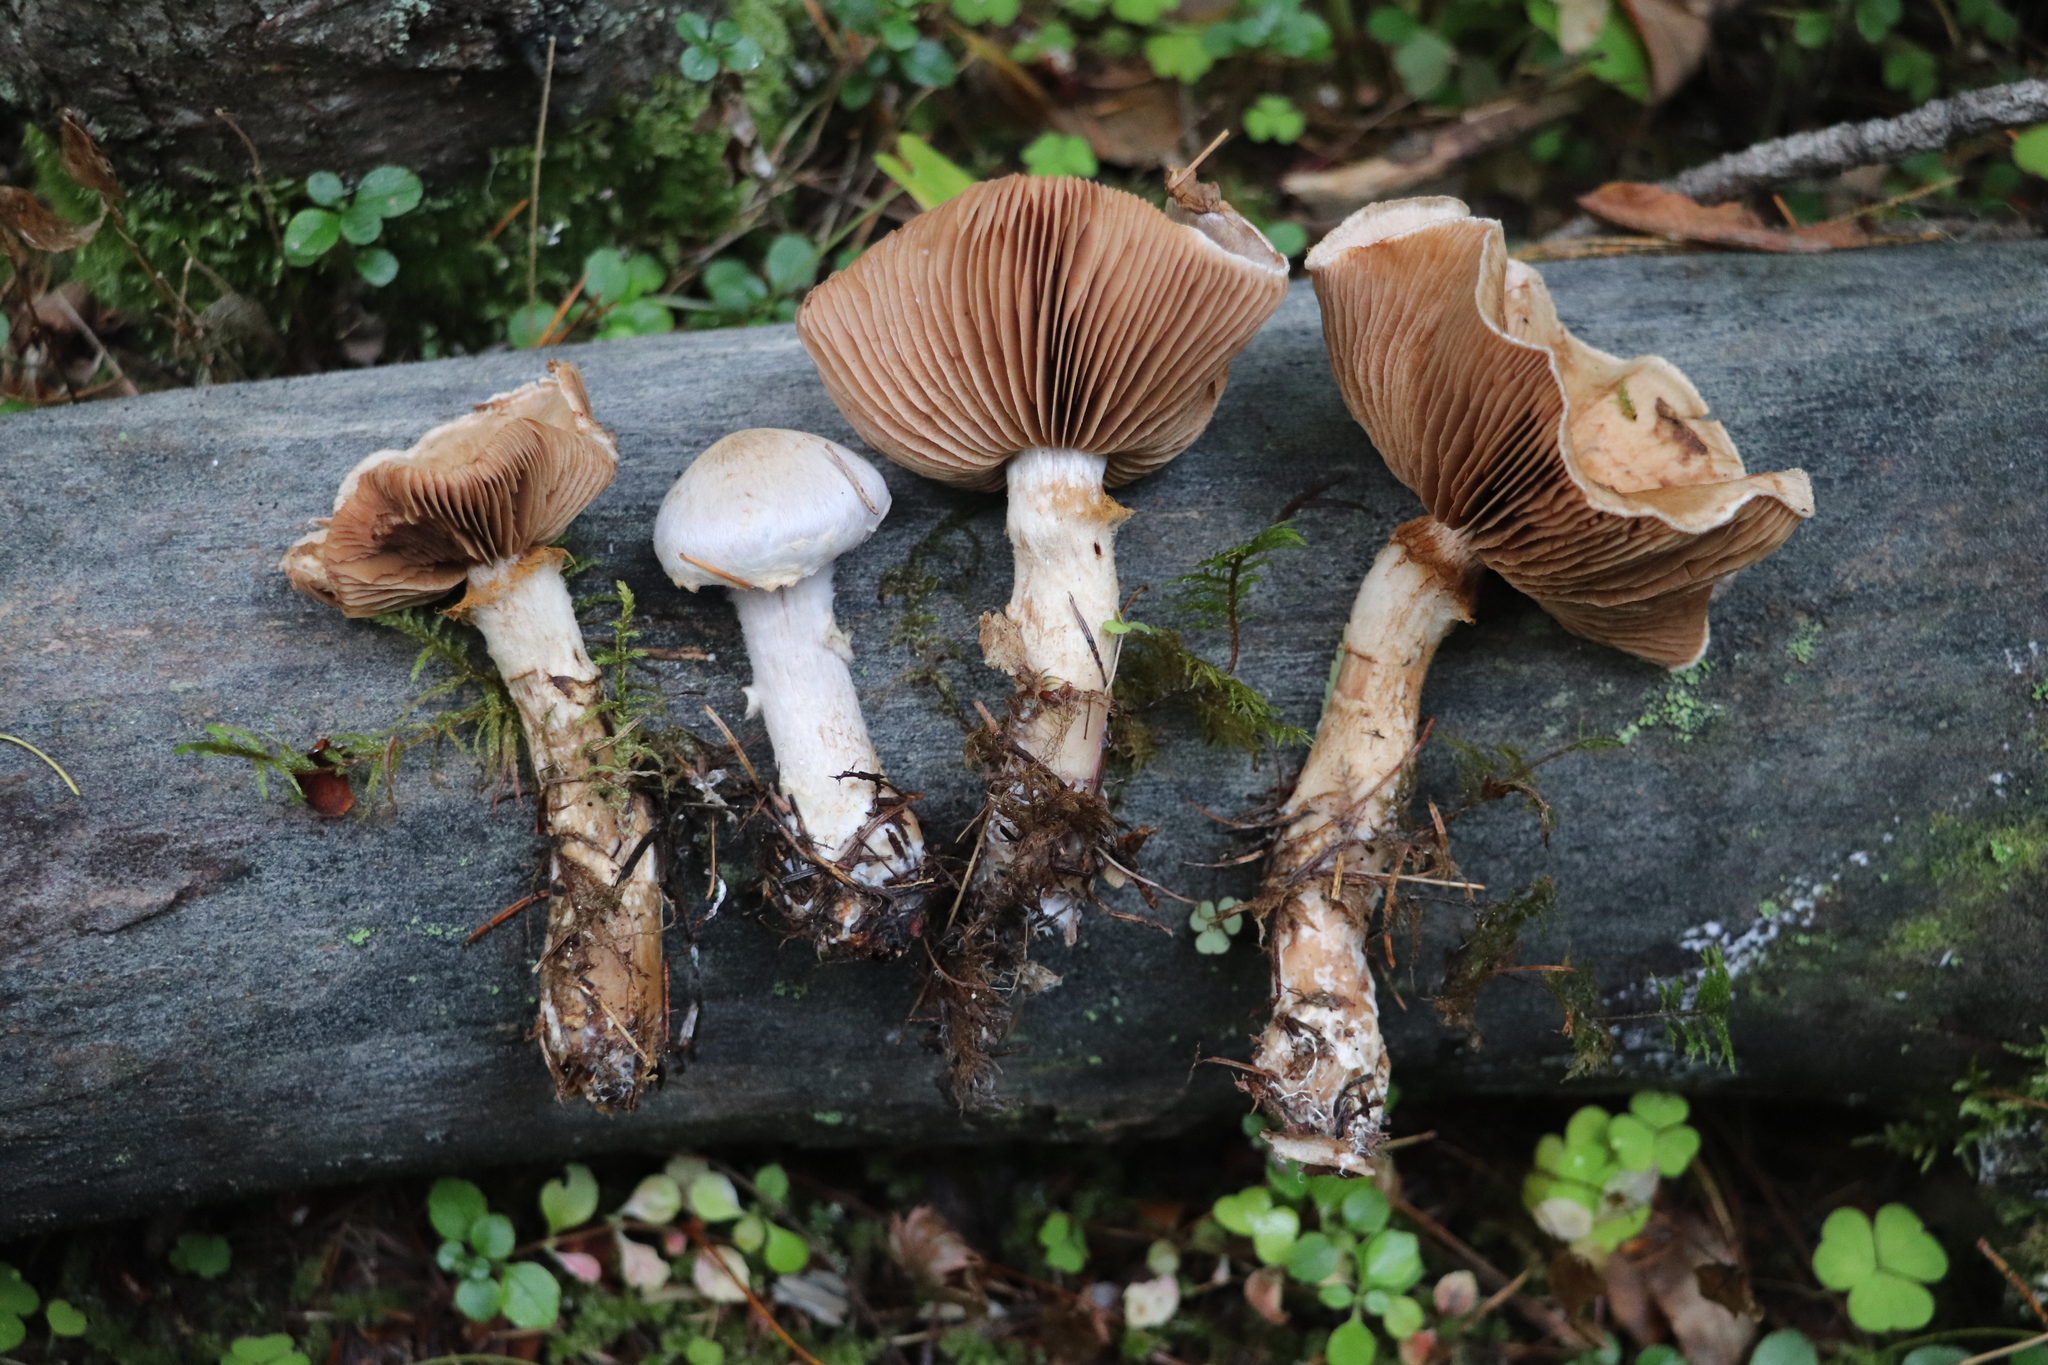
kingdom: Fungi
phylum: Basidiomycota
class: Agaricomycetes
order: Agaricales
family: Cortinariaceae
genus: Cortinarius
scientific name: Cortinarius brunneus
